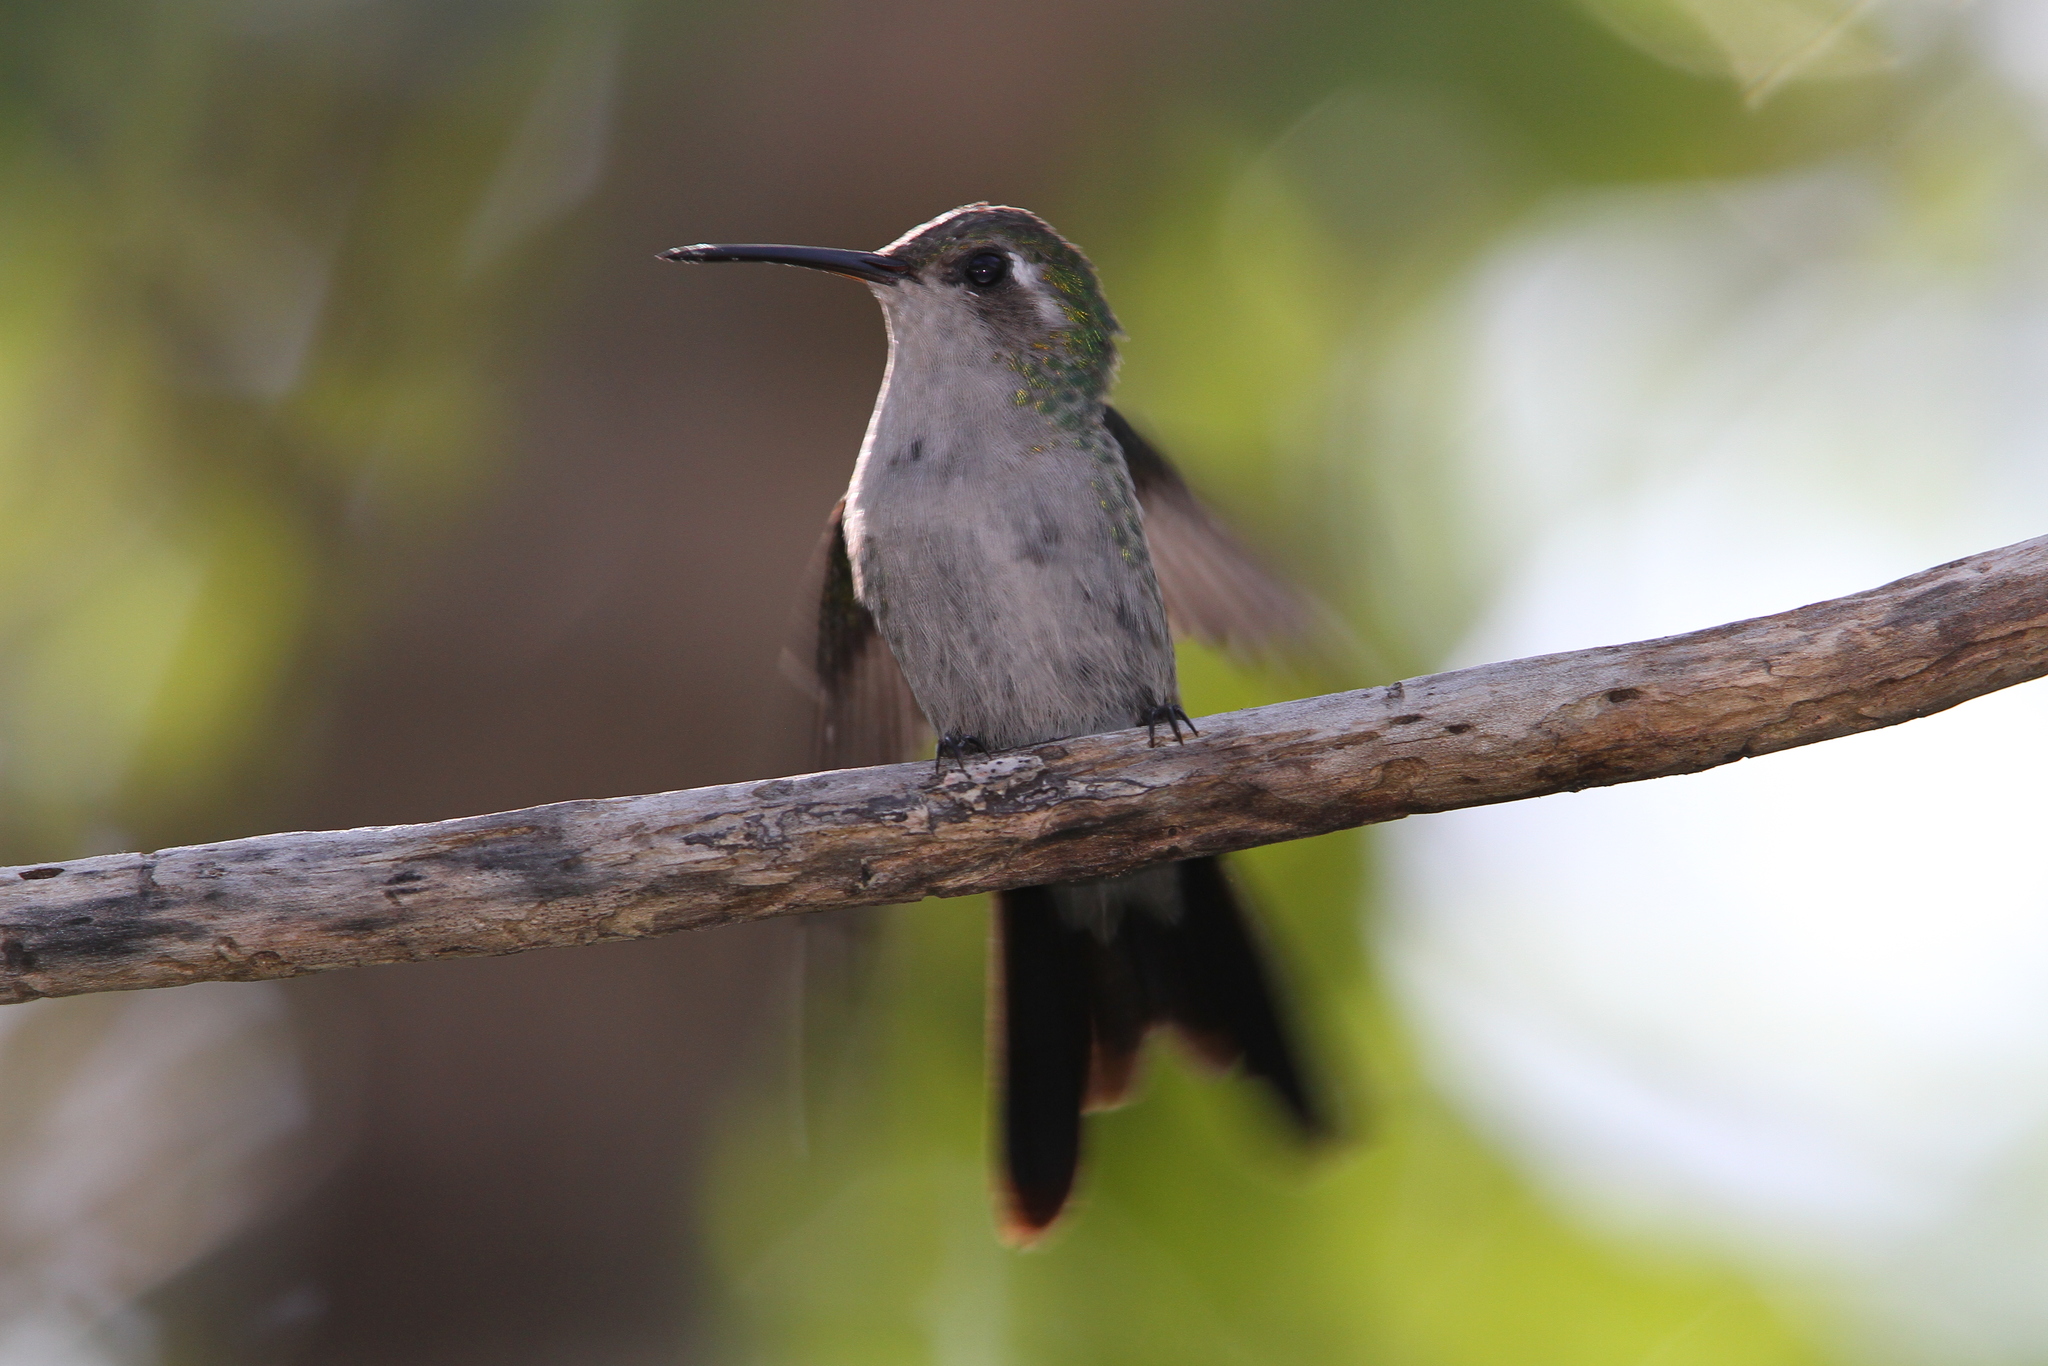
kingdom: Animalia
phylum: Chordata
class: Aves
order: Apodiformes
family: Trochilidae
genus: Riccordia
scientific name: Riccordia ricordii
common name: Cuban emerald
